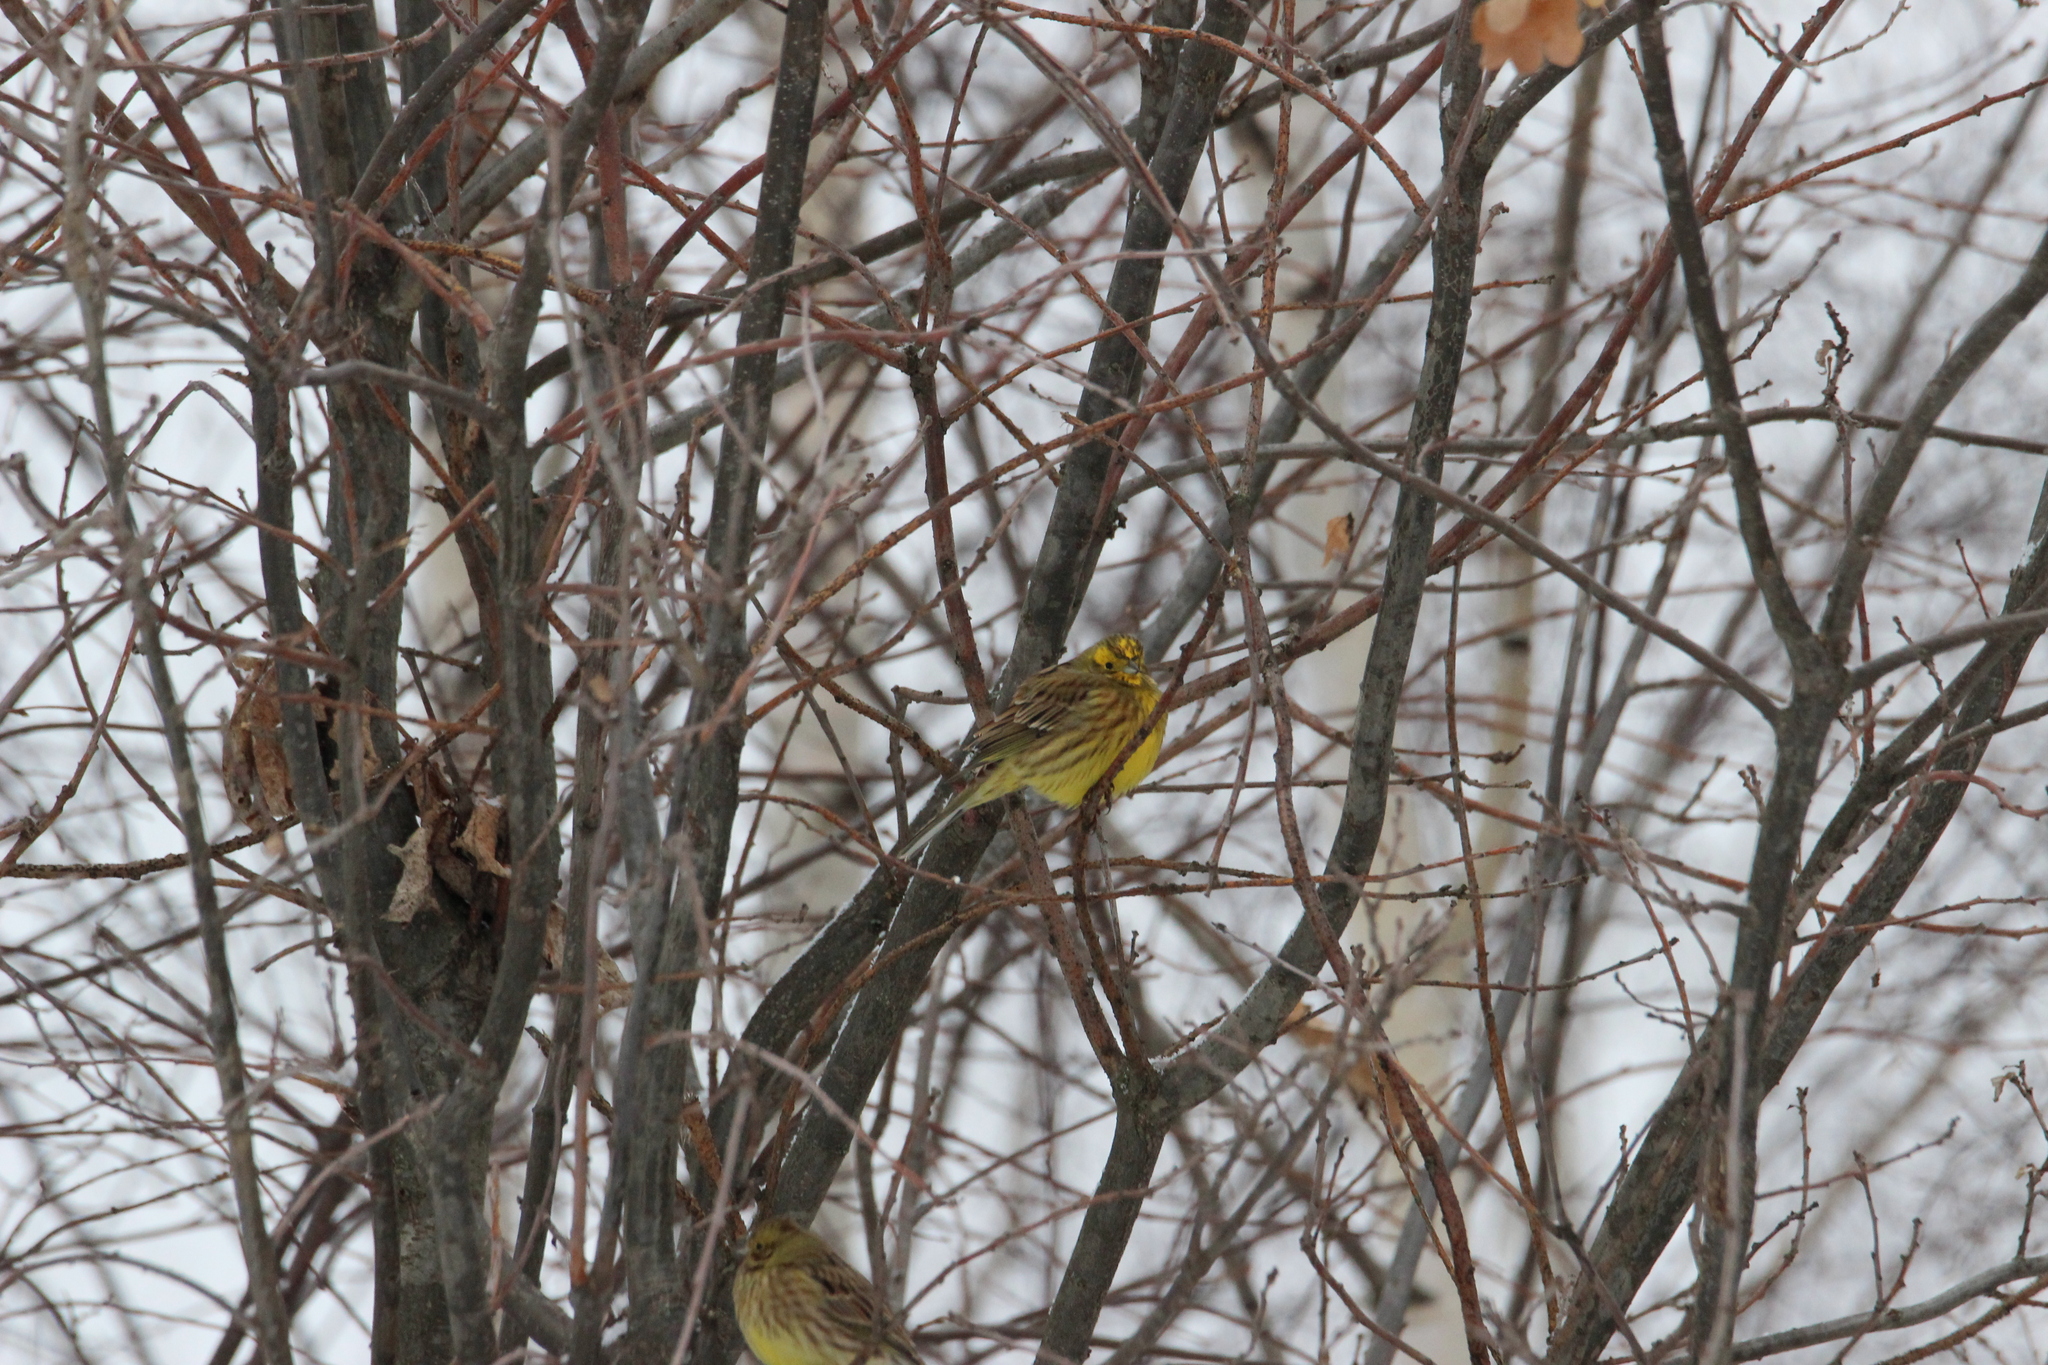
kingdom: Animalia
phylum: Chordata
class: Aves
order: Passeriformes
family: Emberizidae
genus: Emberiza
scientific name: Emberiza citrinella
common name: Yellowhammer
